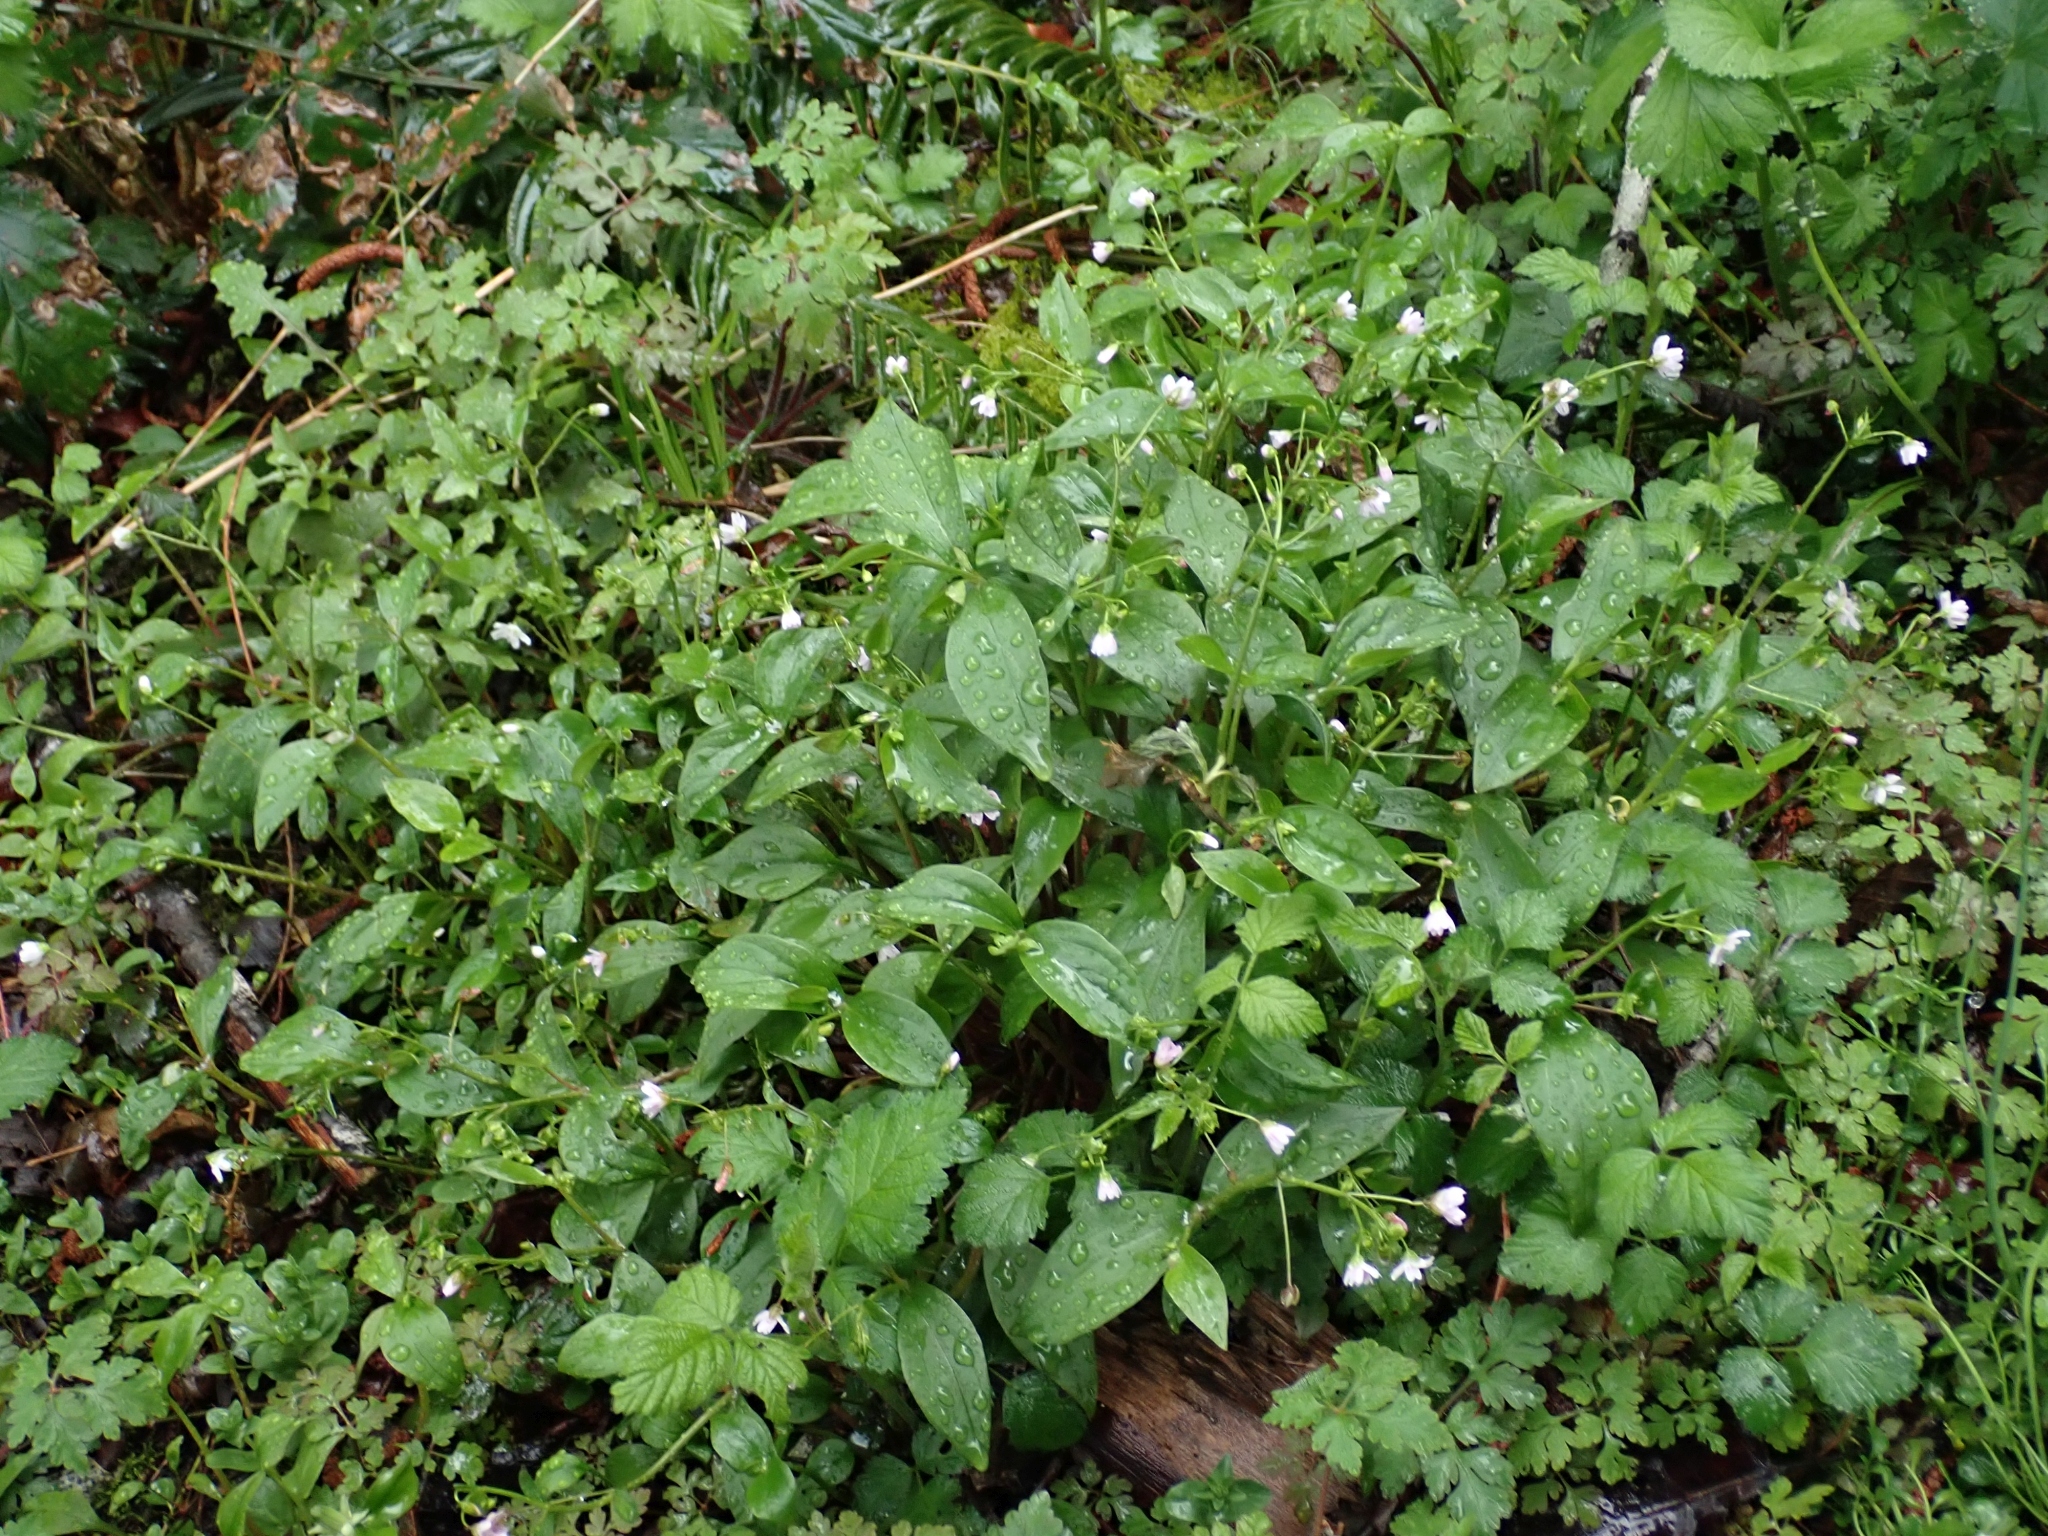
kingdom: Plantae
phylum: Tracheophyta
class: Magnoliopsida
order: Caryophyllales
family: Montiaceae
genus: Claytonia
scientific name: Claytonia sibirica
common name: Pink purslane
